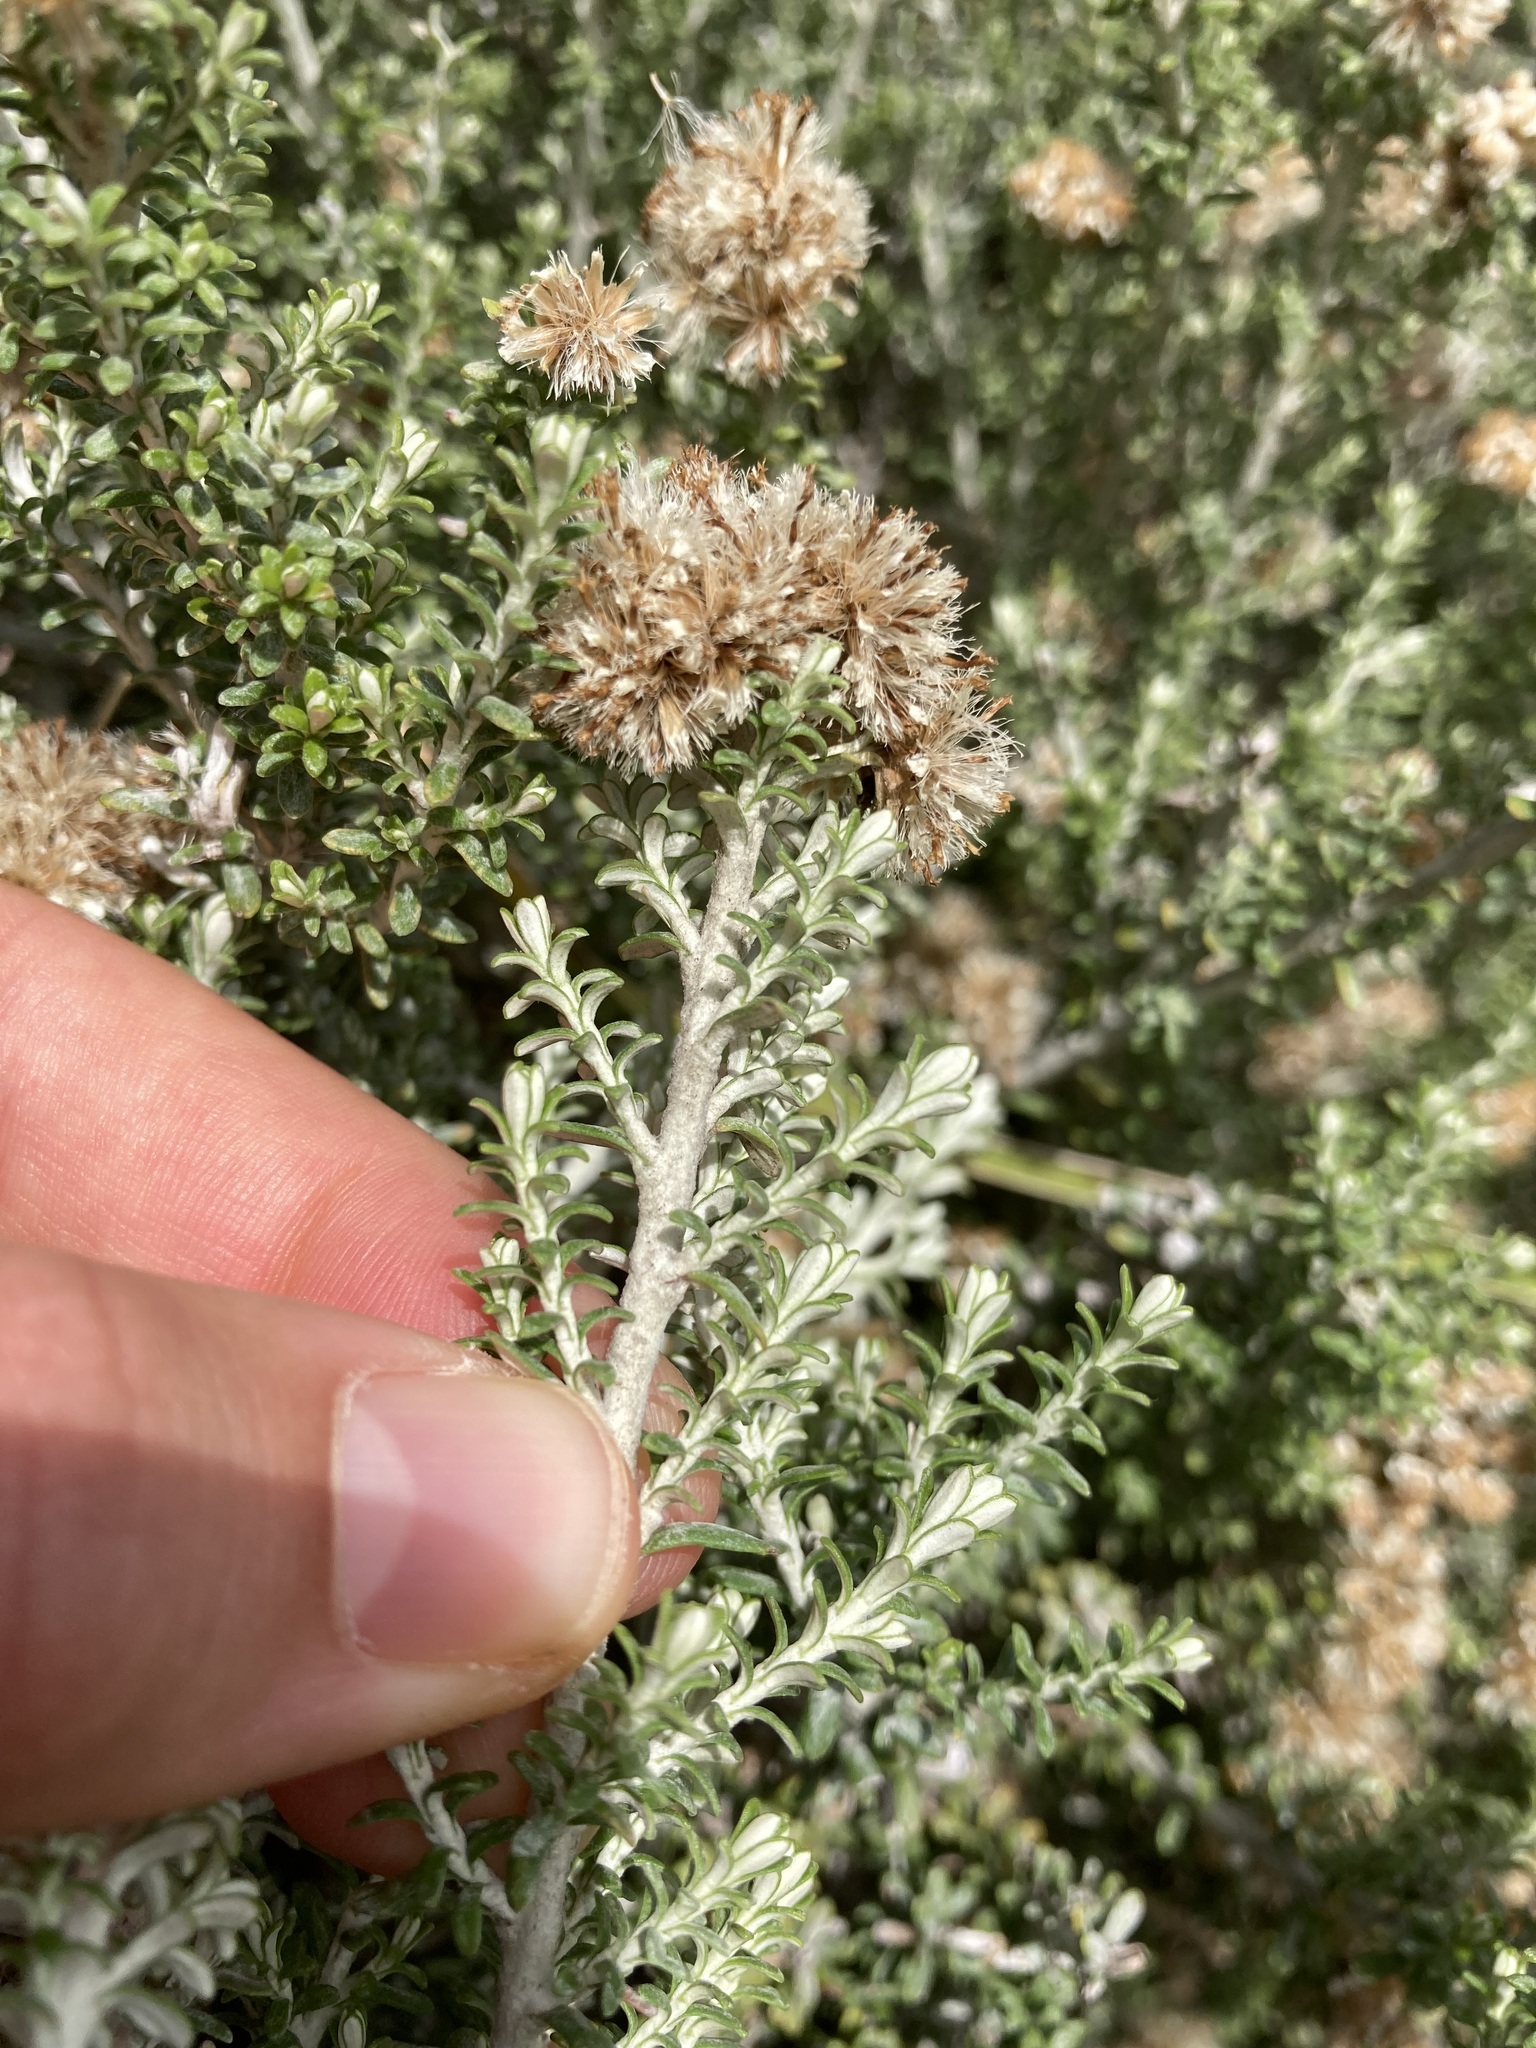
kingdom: Plantae
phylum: Tracheophyta
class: Magnoliopsida
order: Asterales
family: Asteraceae
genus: Ozothamnus
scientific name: Ozothamnus leptophyllus
